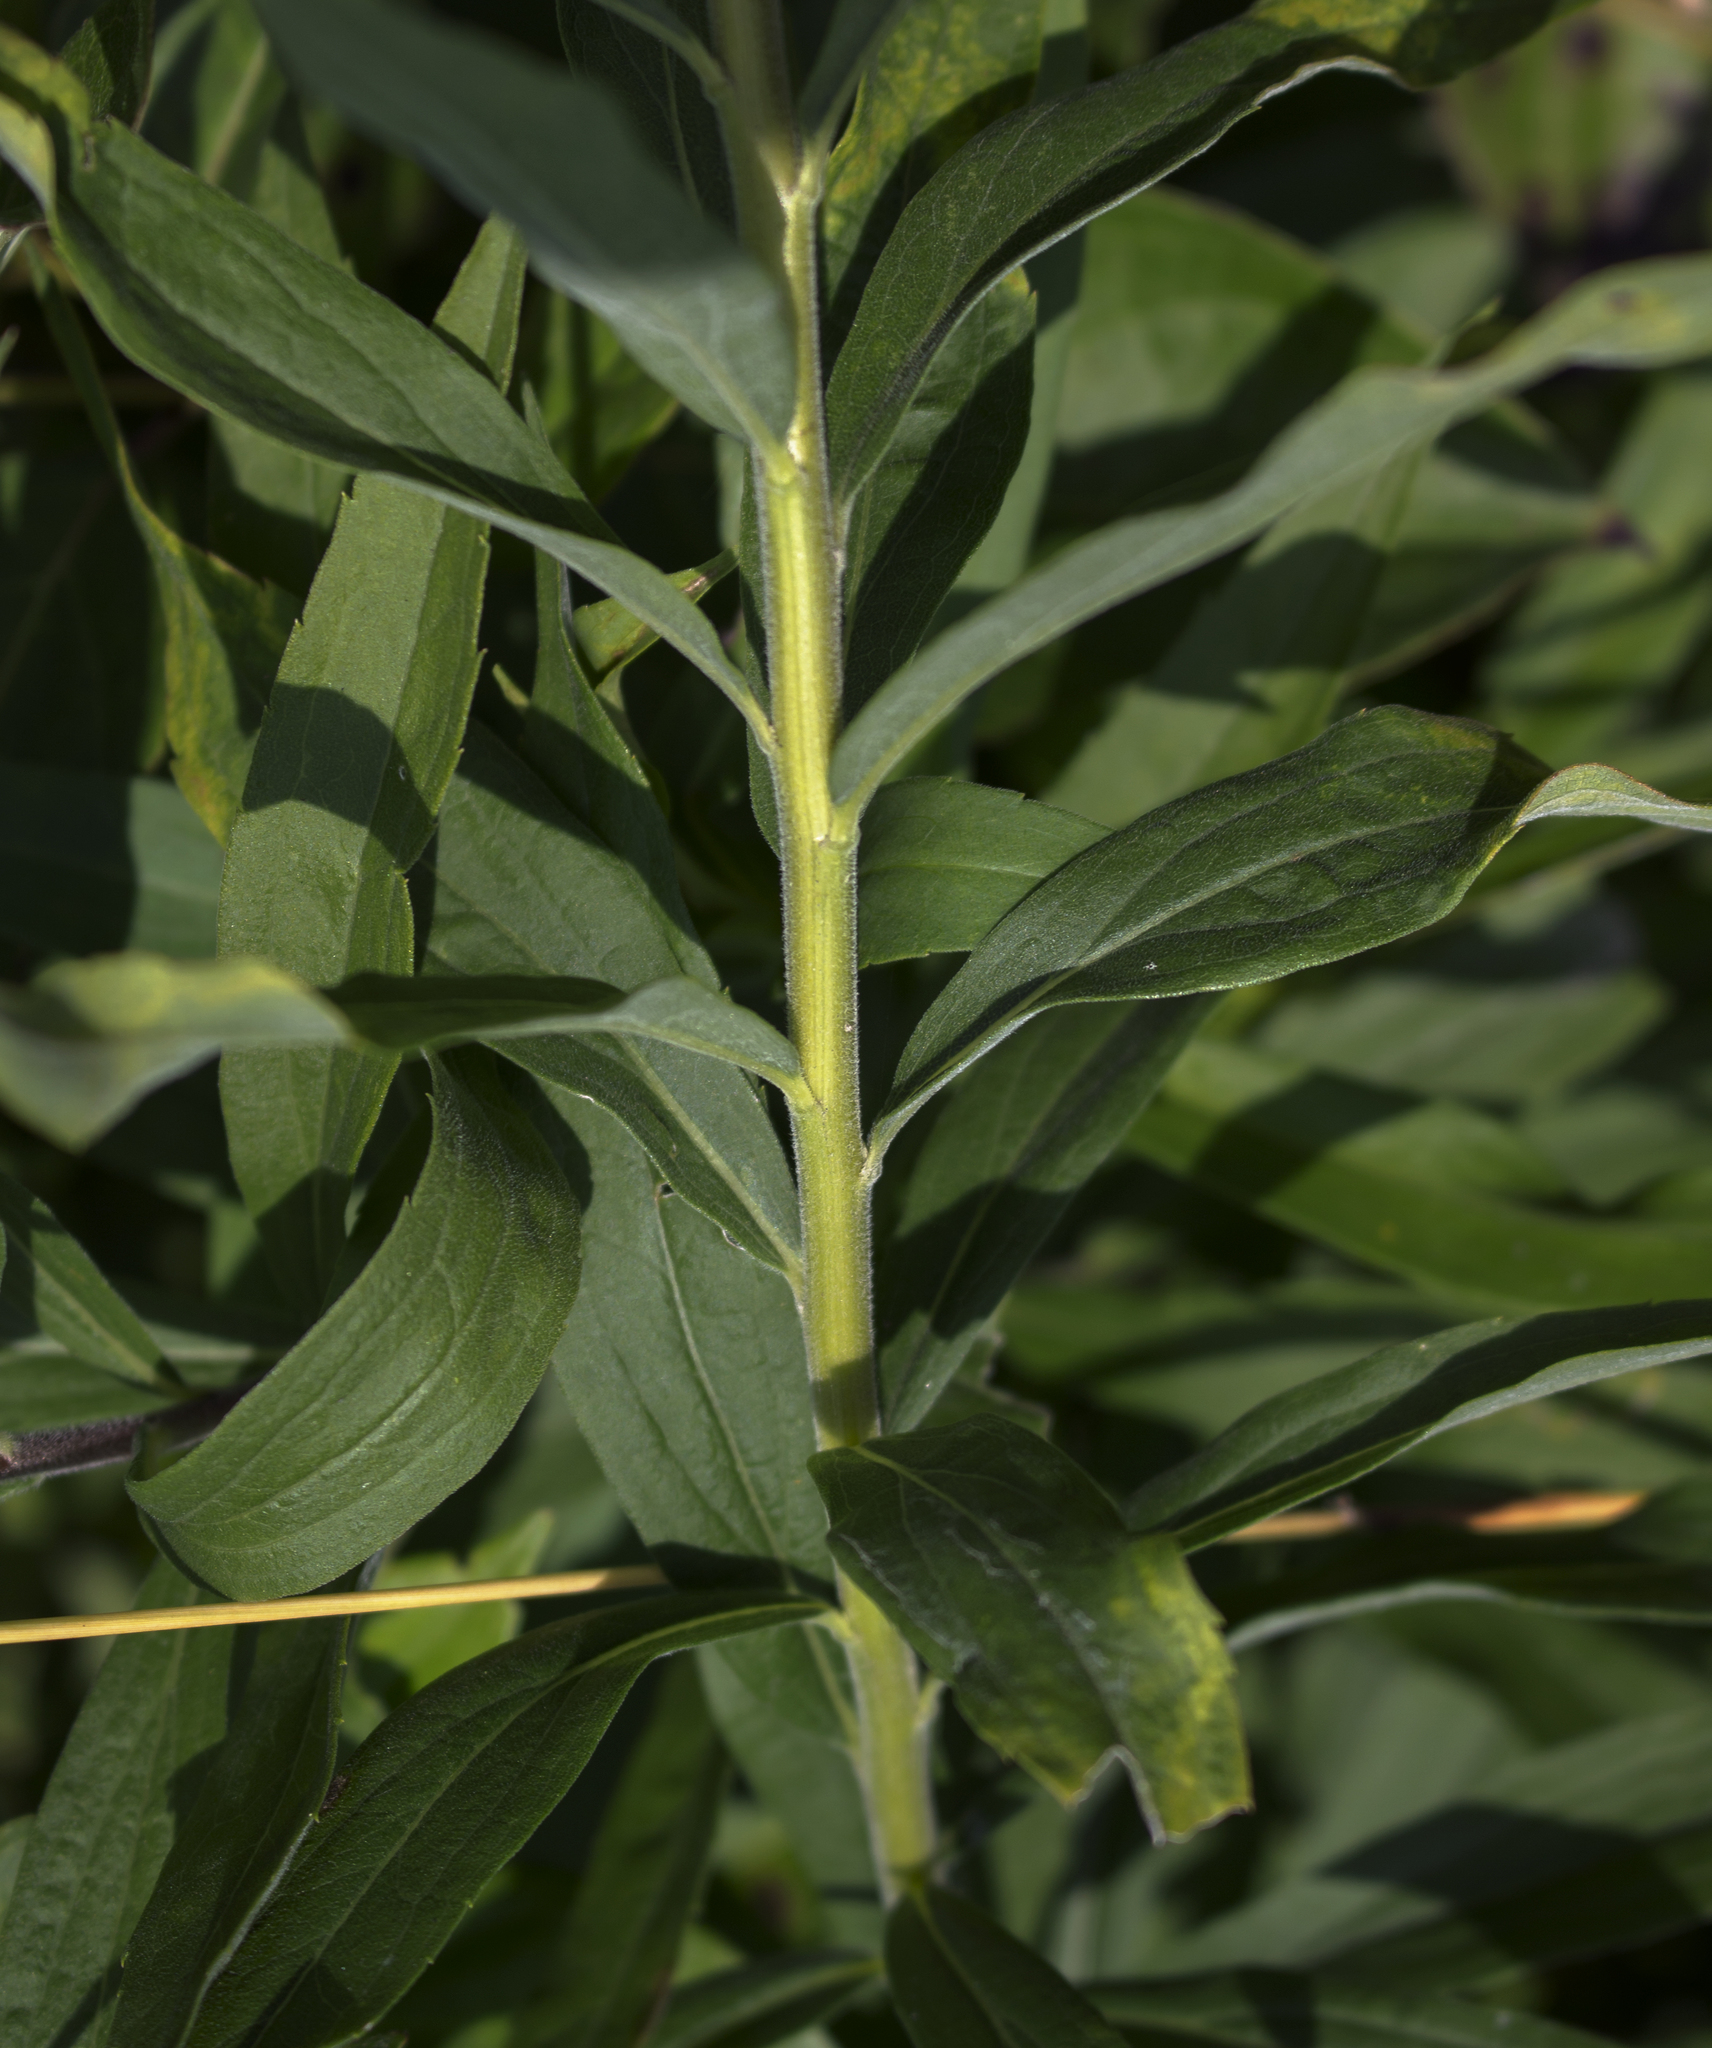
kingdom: Plantae
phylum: Tracheophyta
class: Magnoliopsida
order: Asterales
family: Asteraceae
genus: Solidago
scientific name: Solidago canadensis
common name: Canada goldenrod
